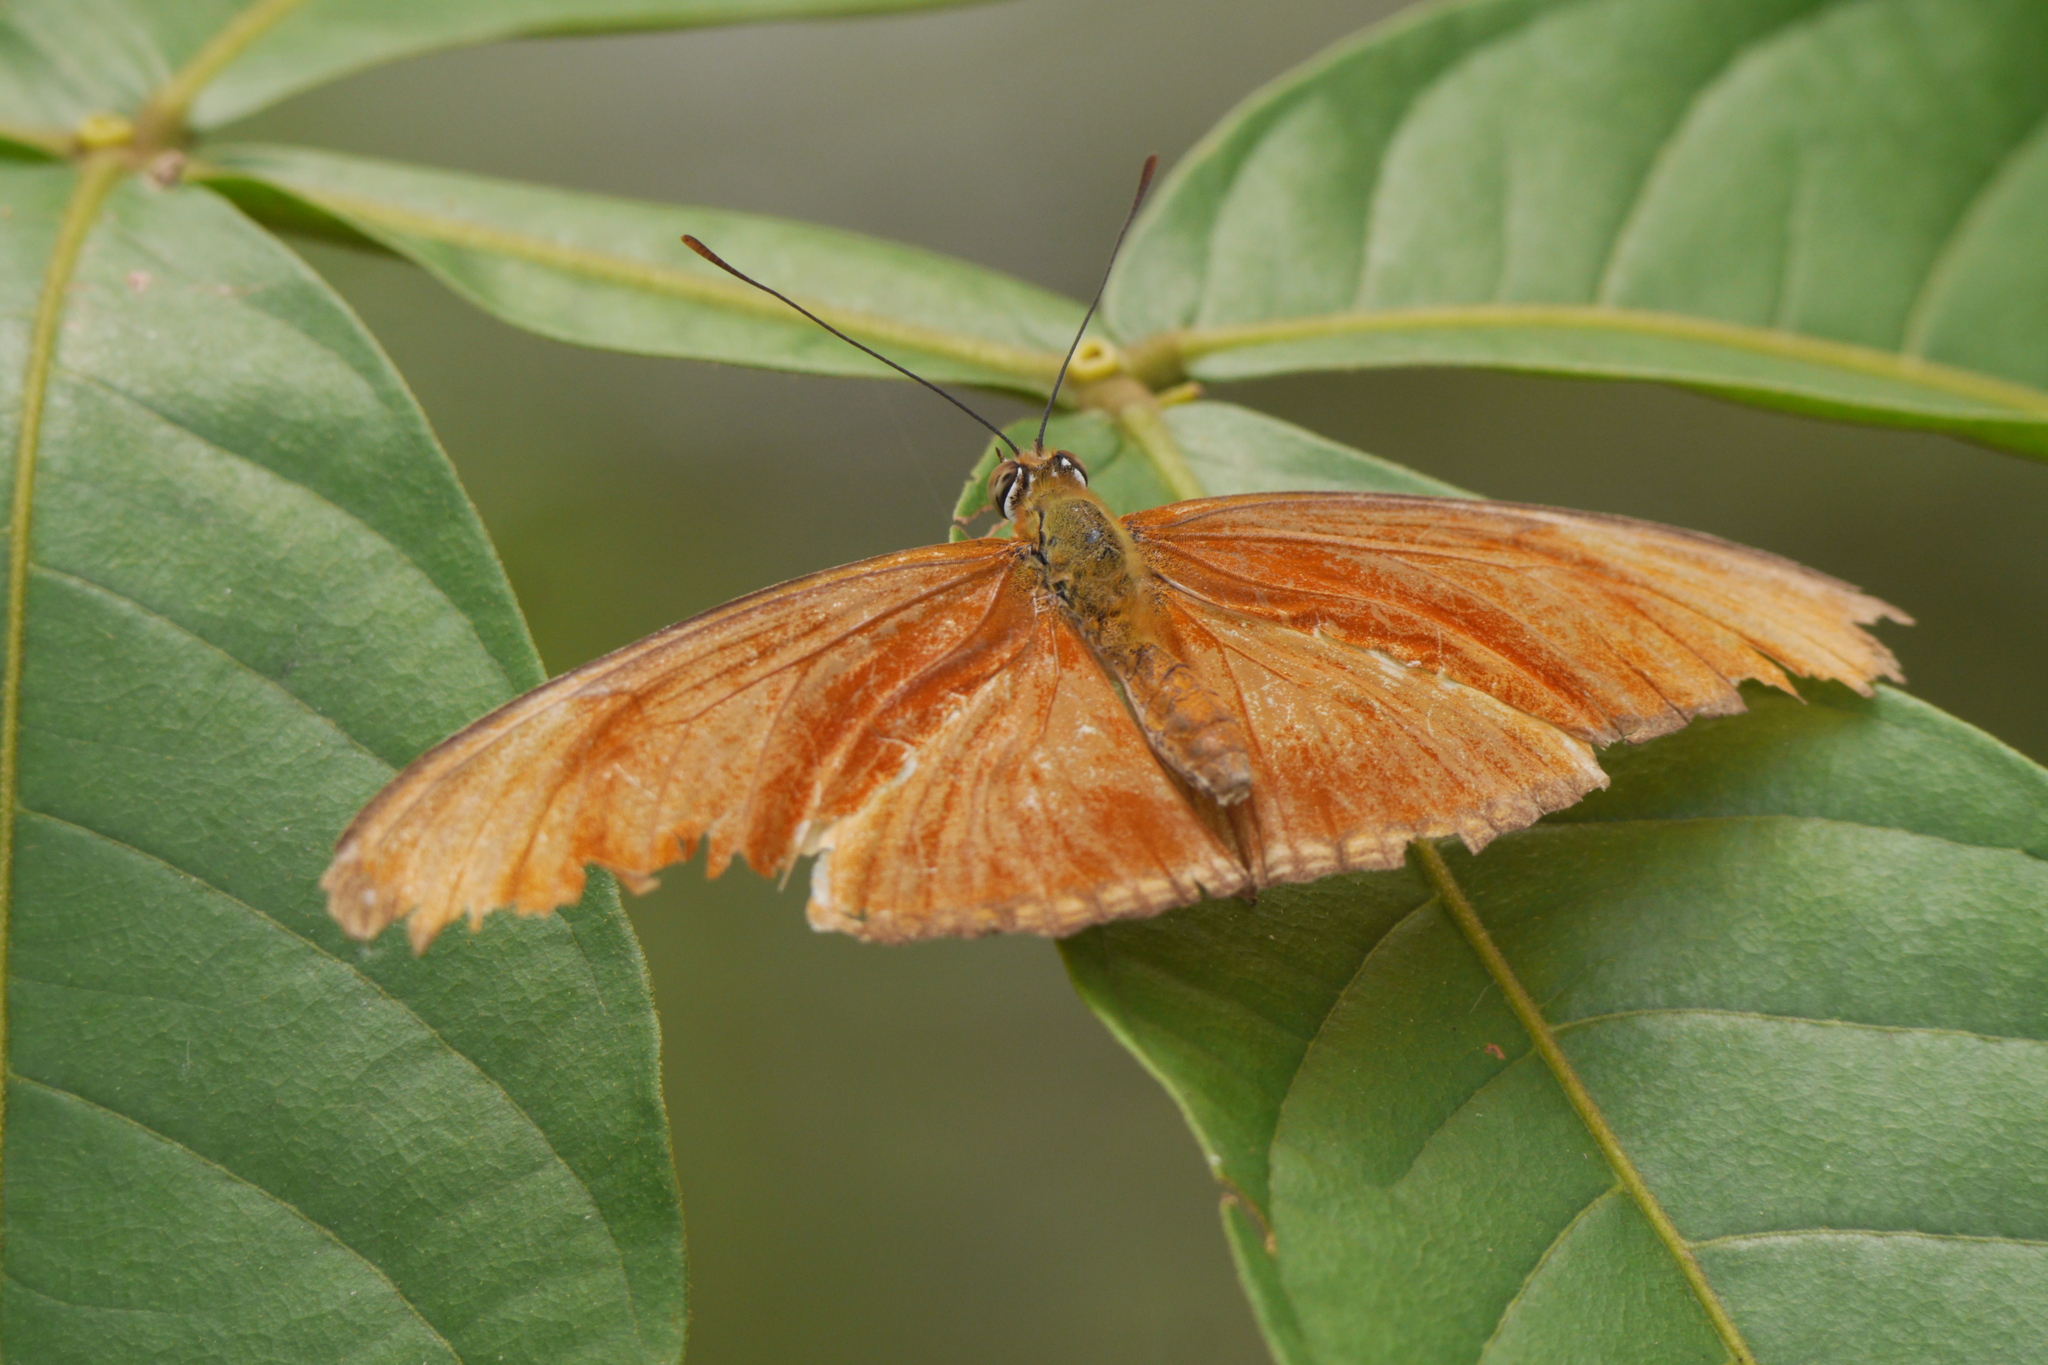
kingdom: Animalia
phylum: Arthropoda
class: Insecta
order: Lepidoptera
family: Nymphalidae
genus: Dryas
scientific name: Dryas iulia
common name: Flambeau
